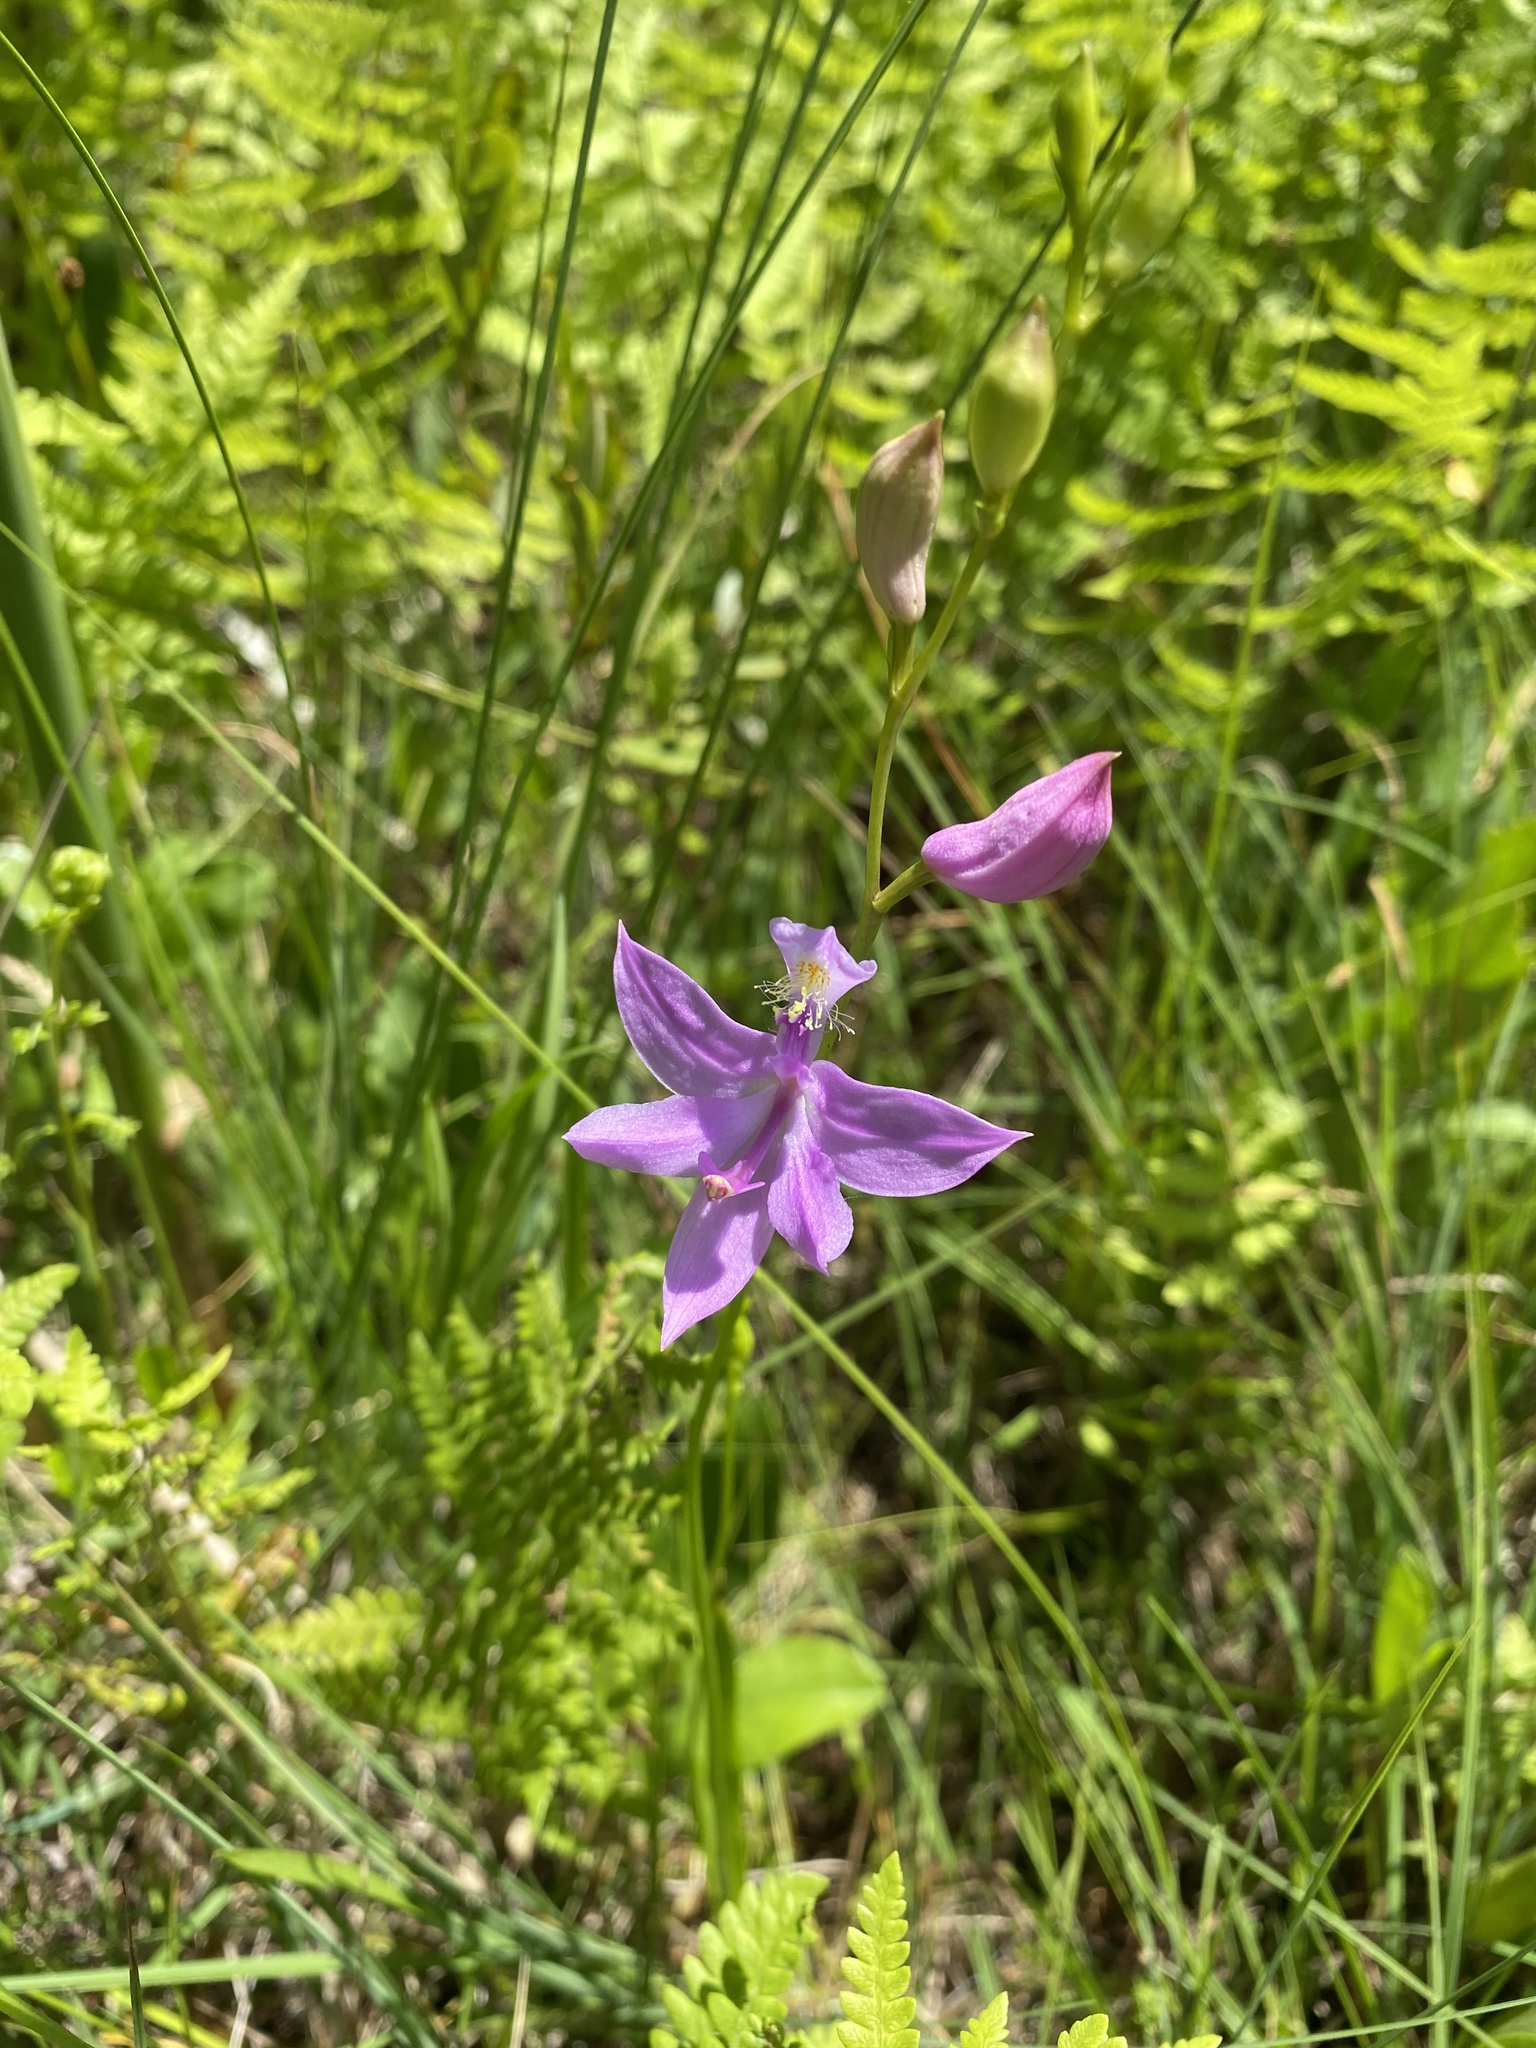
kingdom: Plantae
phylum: Tracheophyta
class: Liliopsida
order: Asparagales
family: Orchidaceae
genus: Calopogon
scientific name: Calopogon tuberosus
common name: Grass-pink
